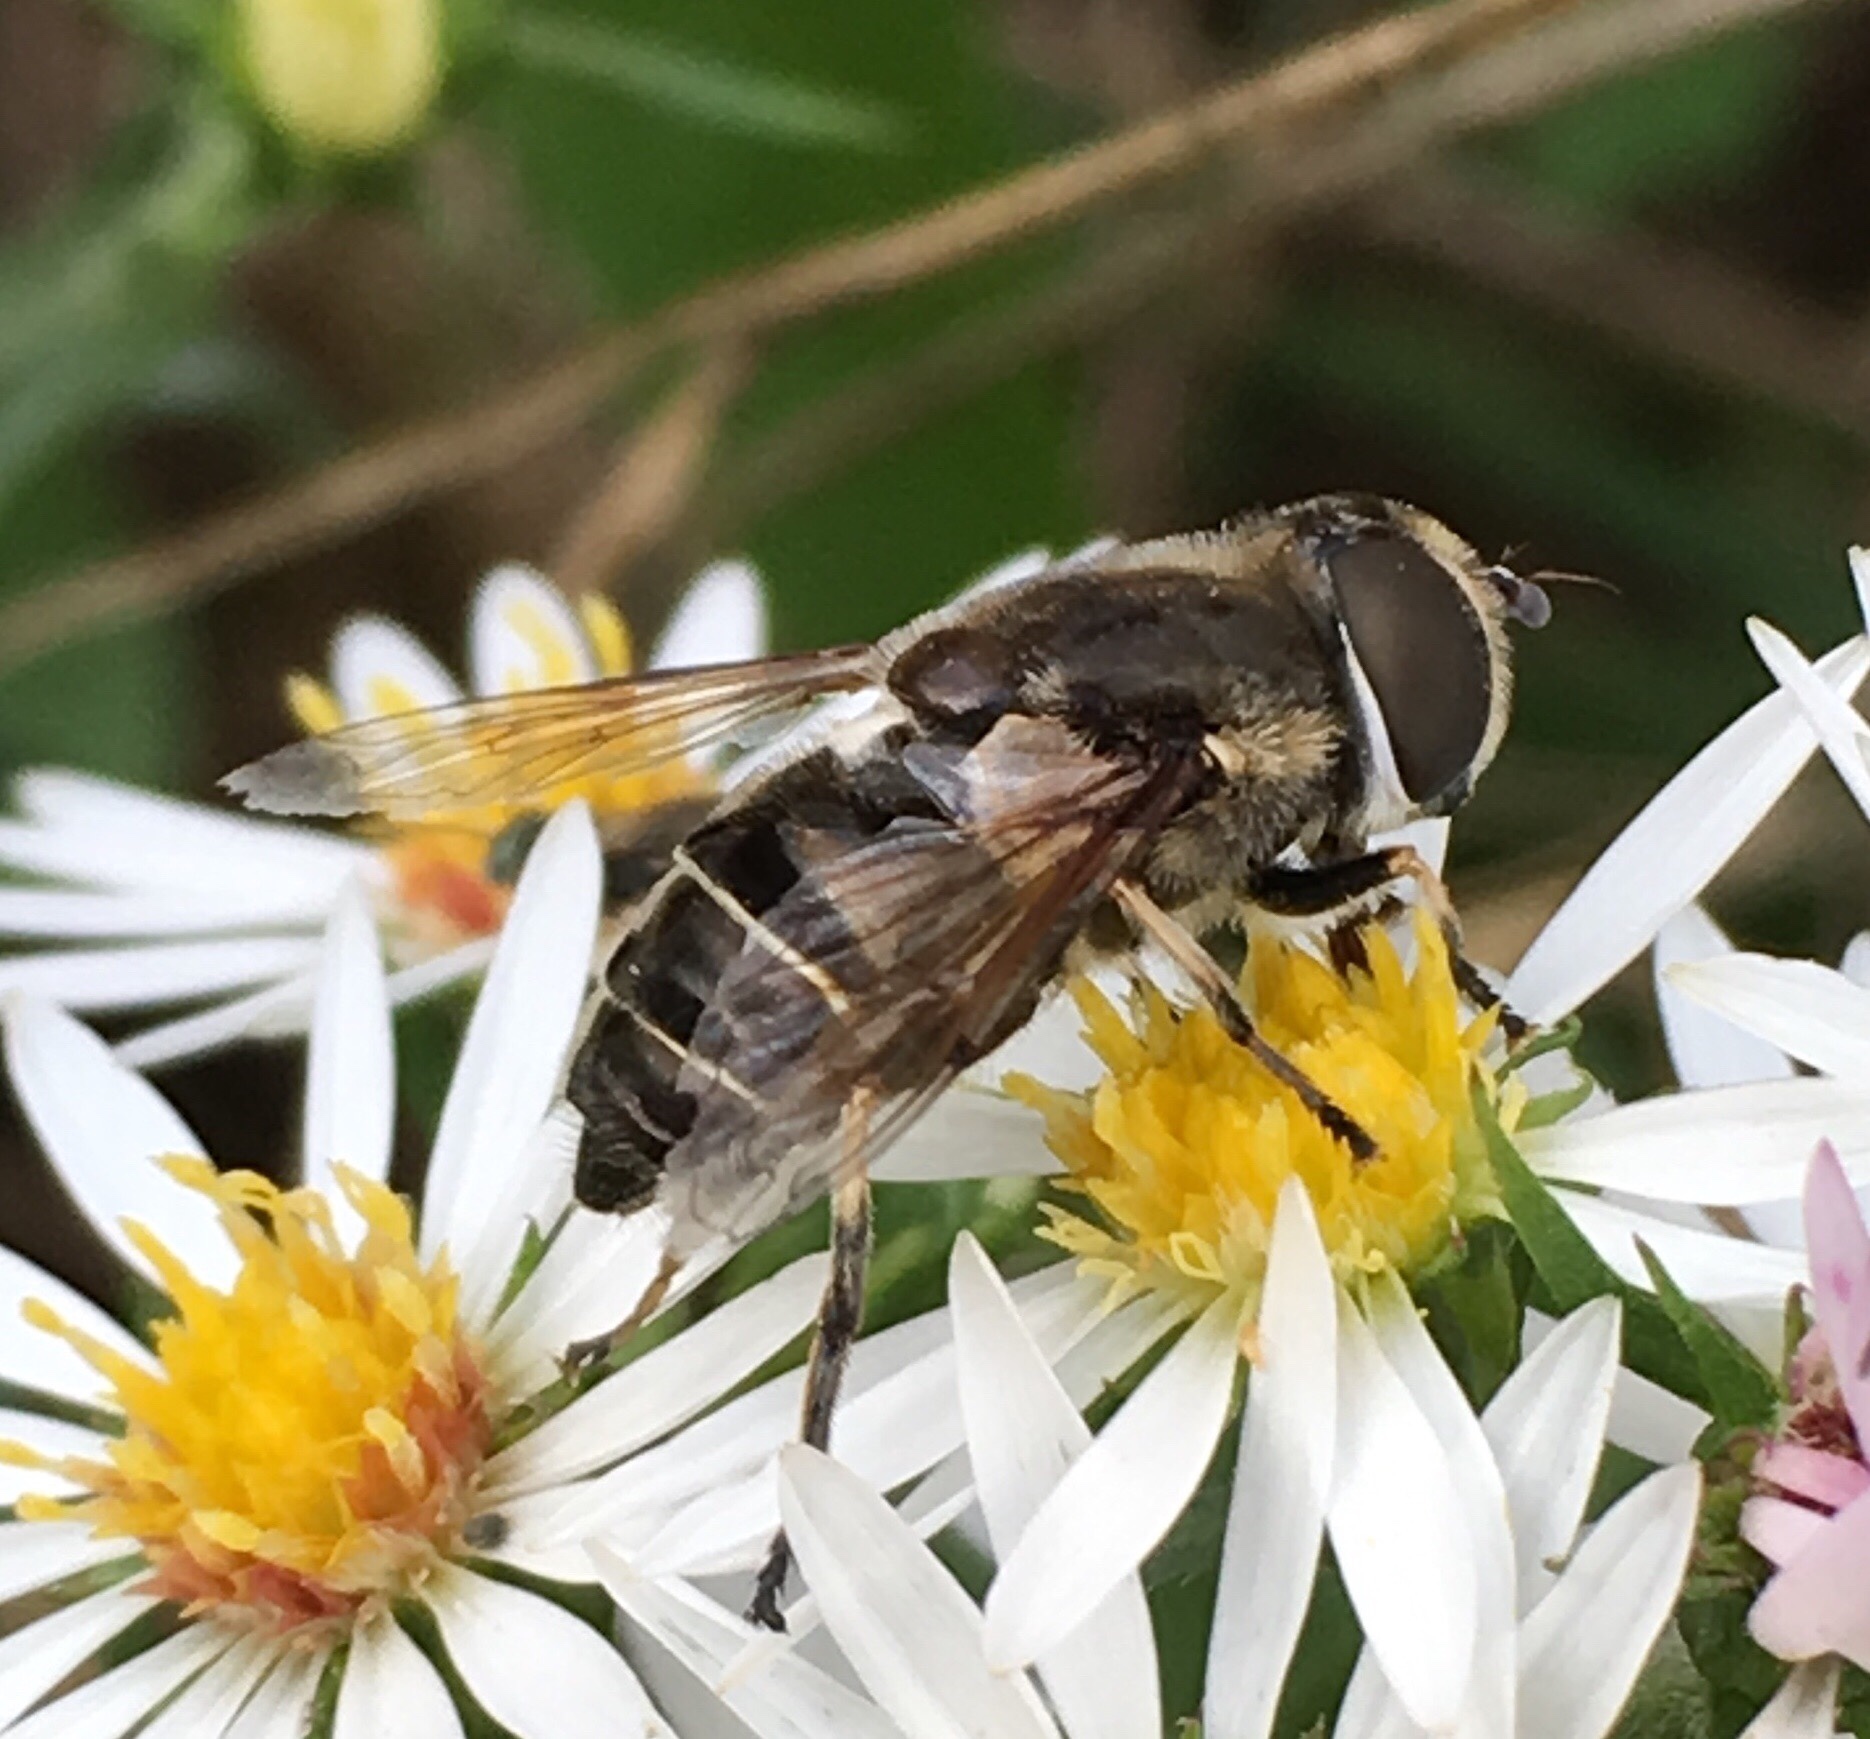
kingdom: Animalia
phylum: Arthropoda
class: Insecta
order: Diptera
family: Syrphidae
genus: Eristalis
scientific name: Eristalis dimidiata
